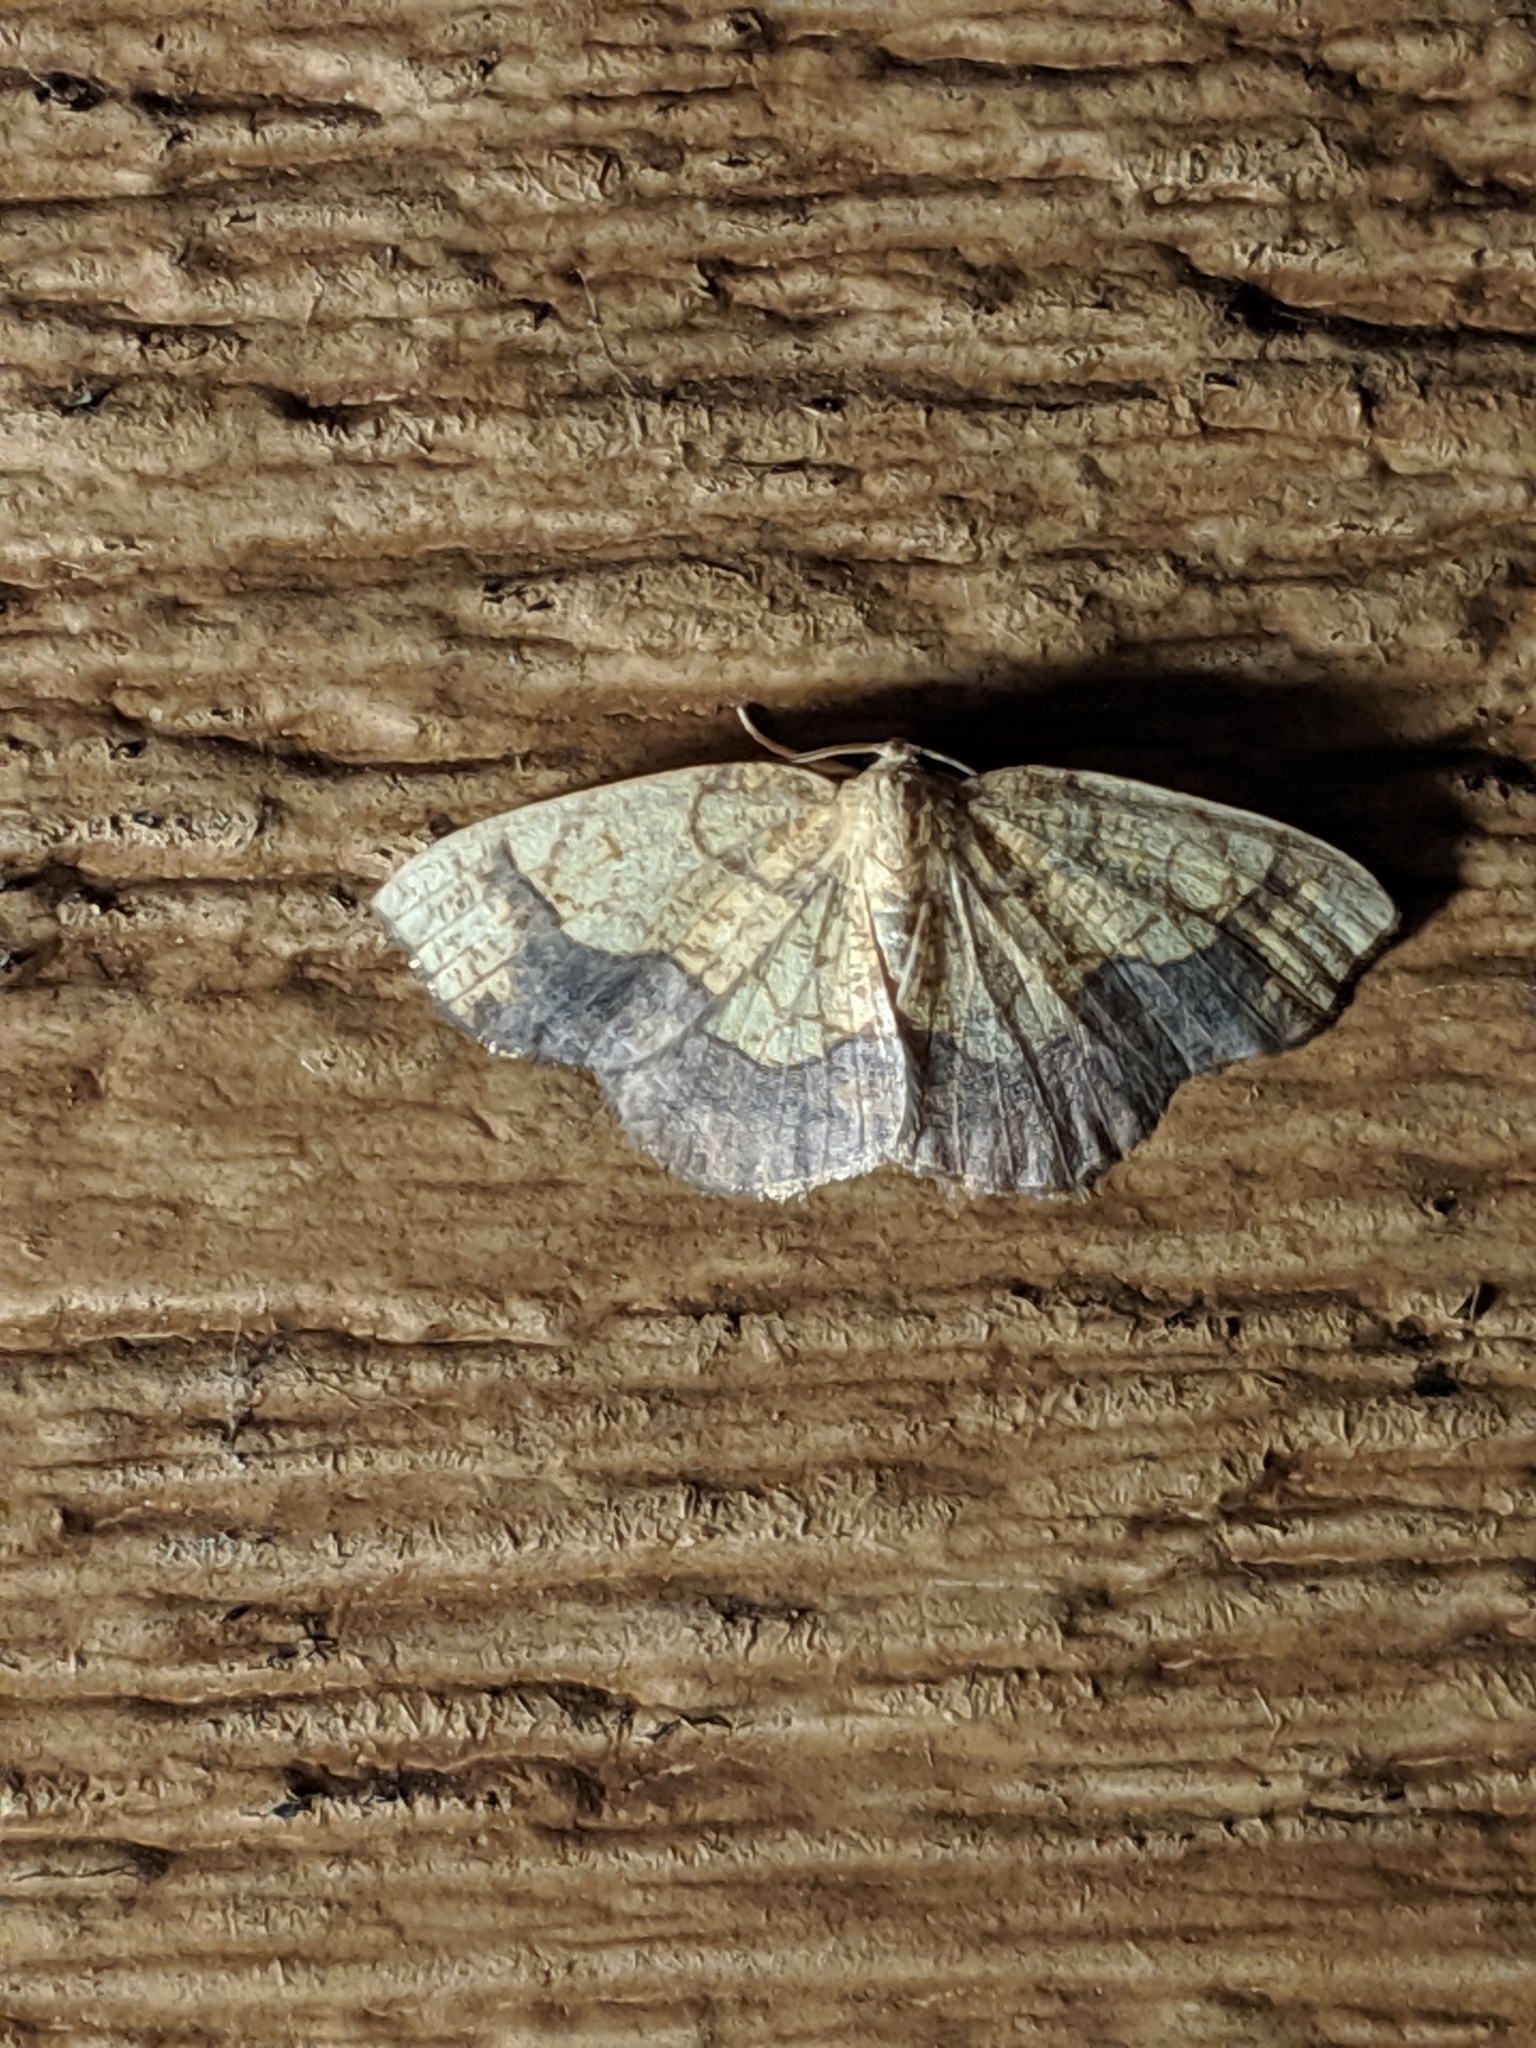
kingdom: Animalia
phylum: Arthropoda
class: Insecta
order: Lepidoptera
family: Geometridae
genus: Nematocampa
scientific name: Nematocampa resistaria
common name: Horned spanworm moth
